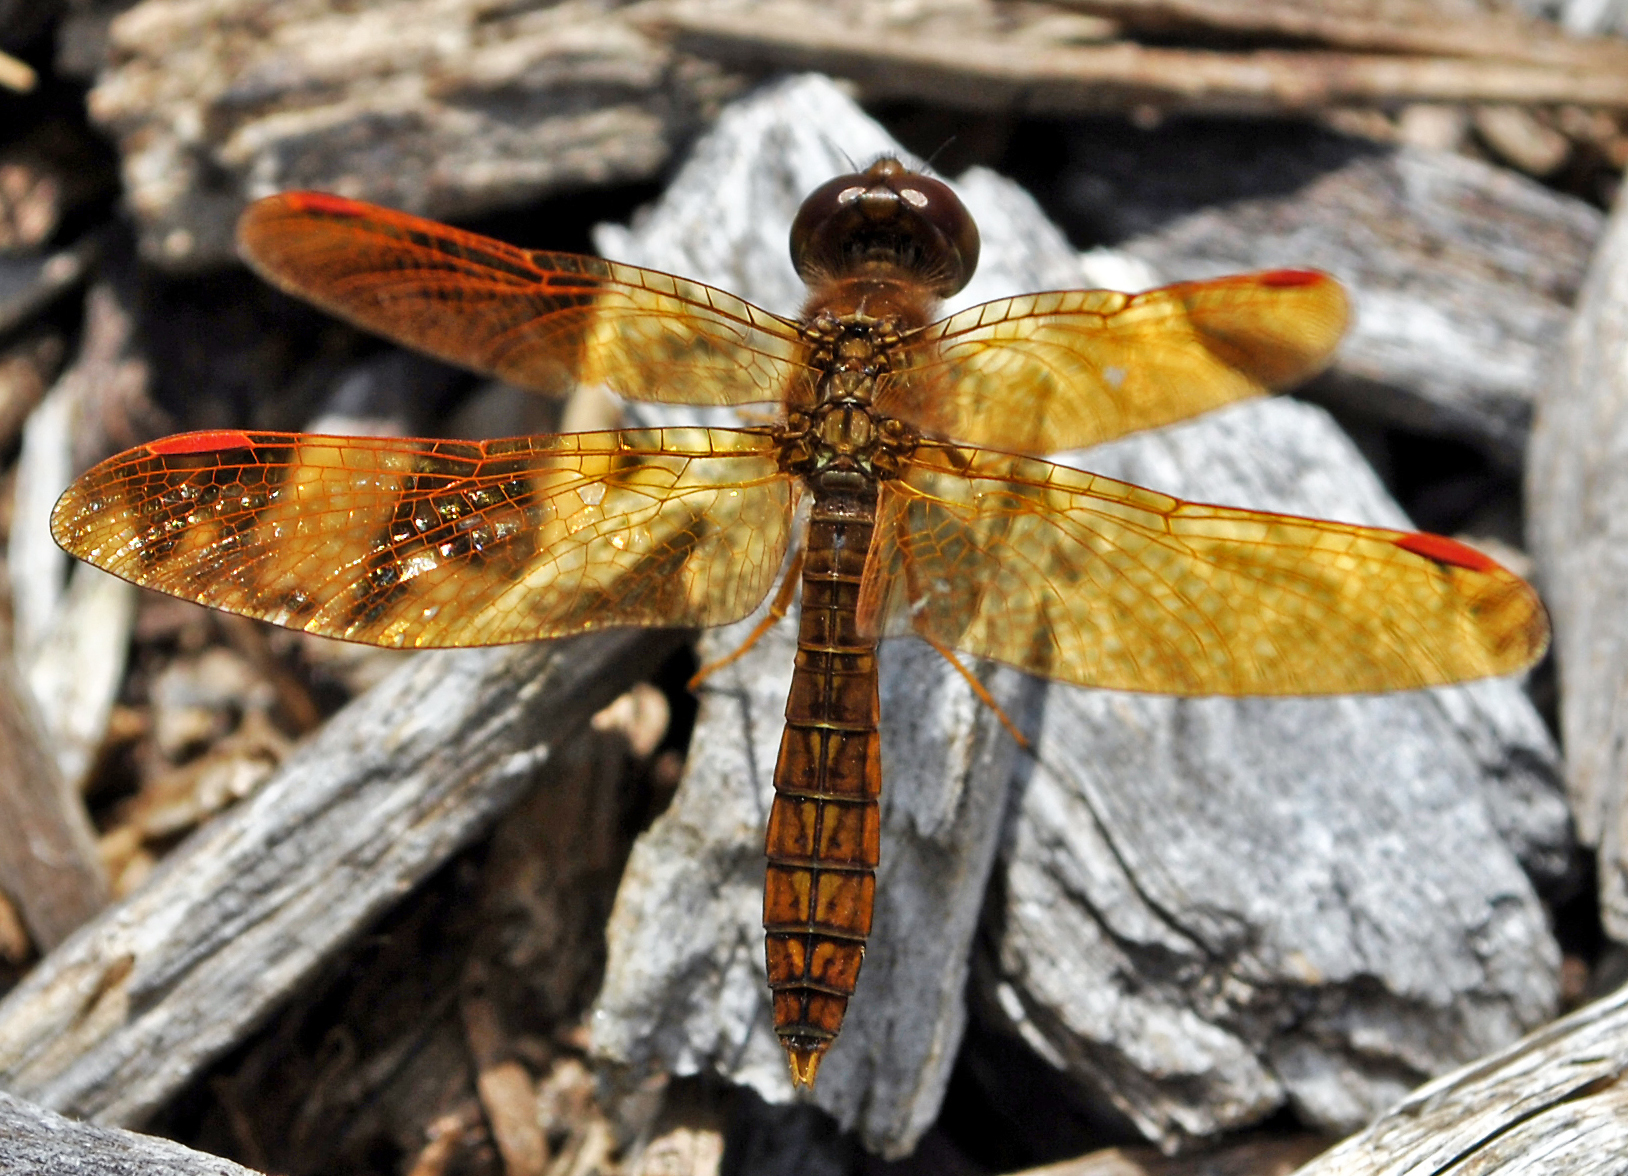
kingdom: Animalia
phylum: Arthropoda
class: Insecta
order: Odonata
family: Libellulidae
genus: Perithemis
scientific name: Perithemis tenera
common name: Eastern amberwing
